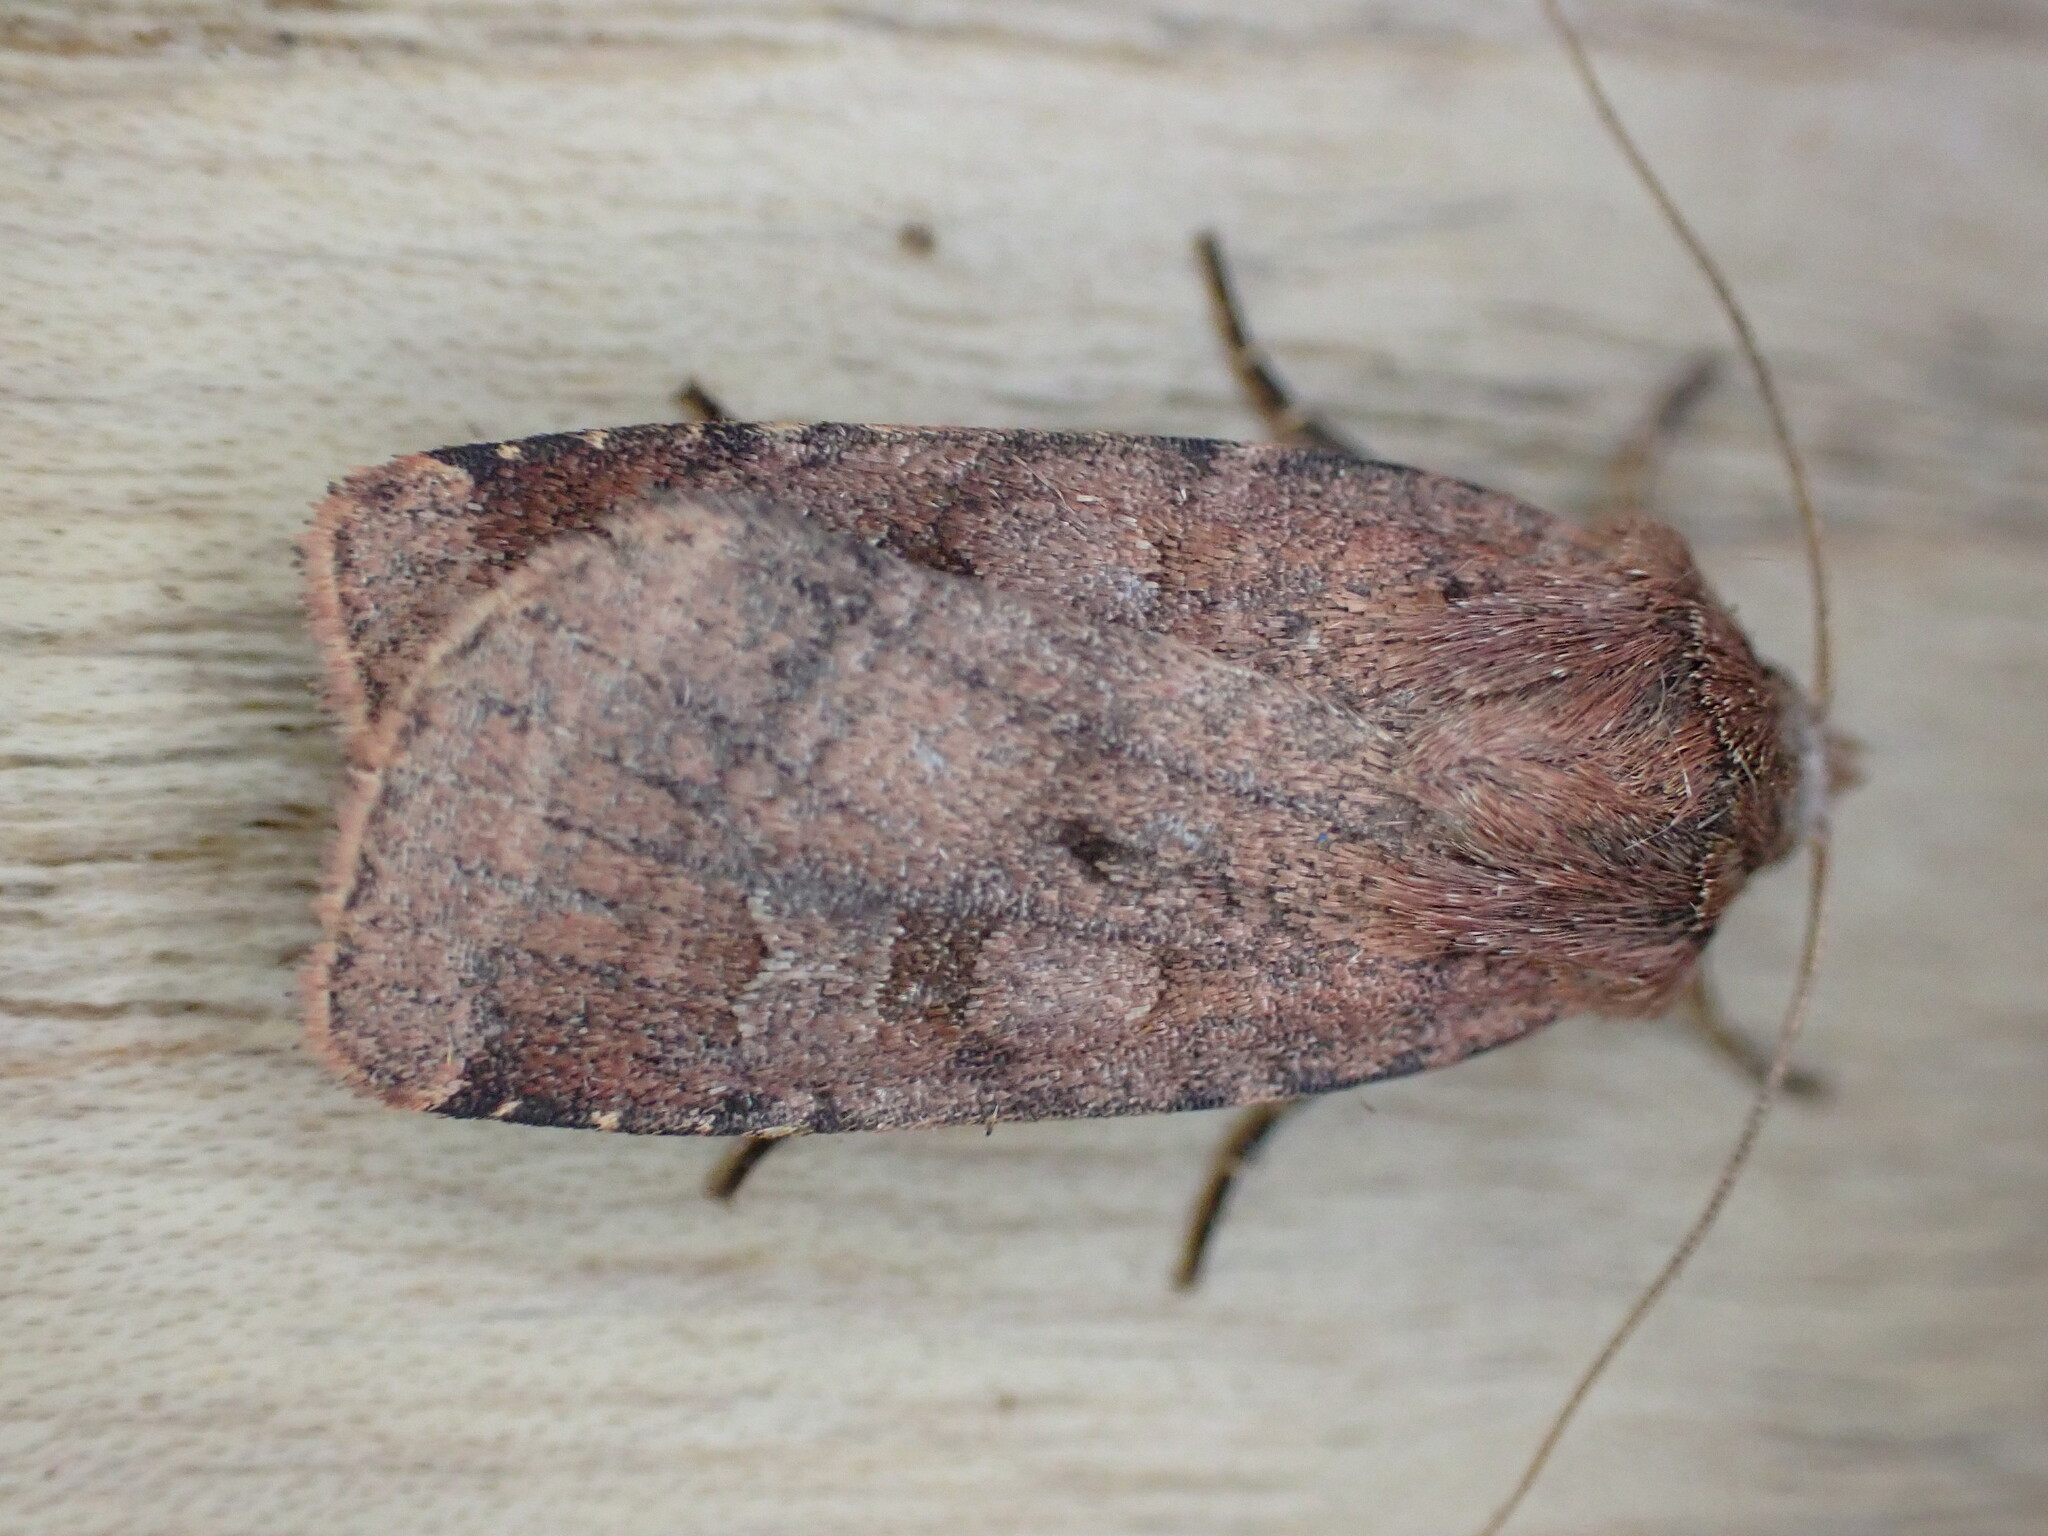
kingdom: Animalia
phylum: Arthropoda
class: Insecta
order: Lepidoptera
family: Noctuidae
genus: Diarsia
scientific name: Diarsia rubi
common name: Small square-spot
